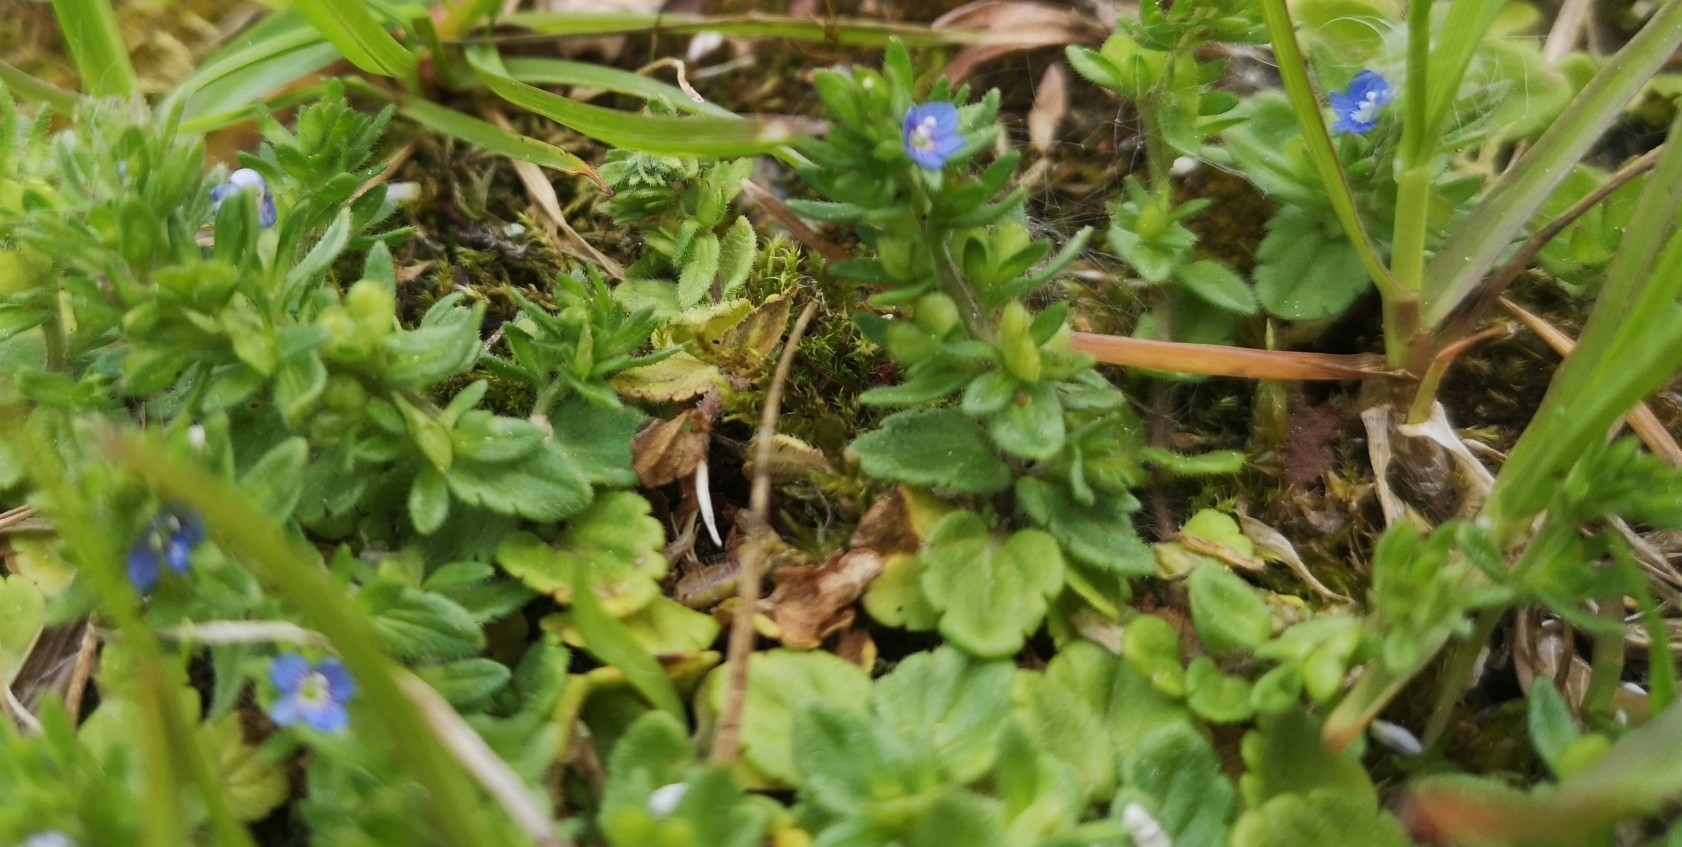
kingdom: Plantae
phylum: Tracheophyta
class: Magnoliopsida
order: Lamiales
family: Plantaginaceae
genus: Veronica
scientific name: Veronica arvensis
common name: Corn speedwell
